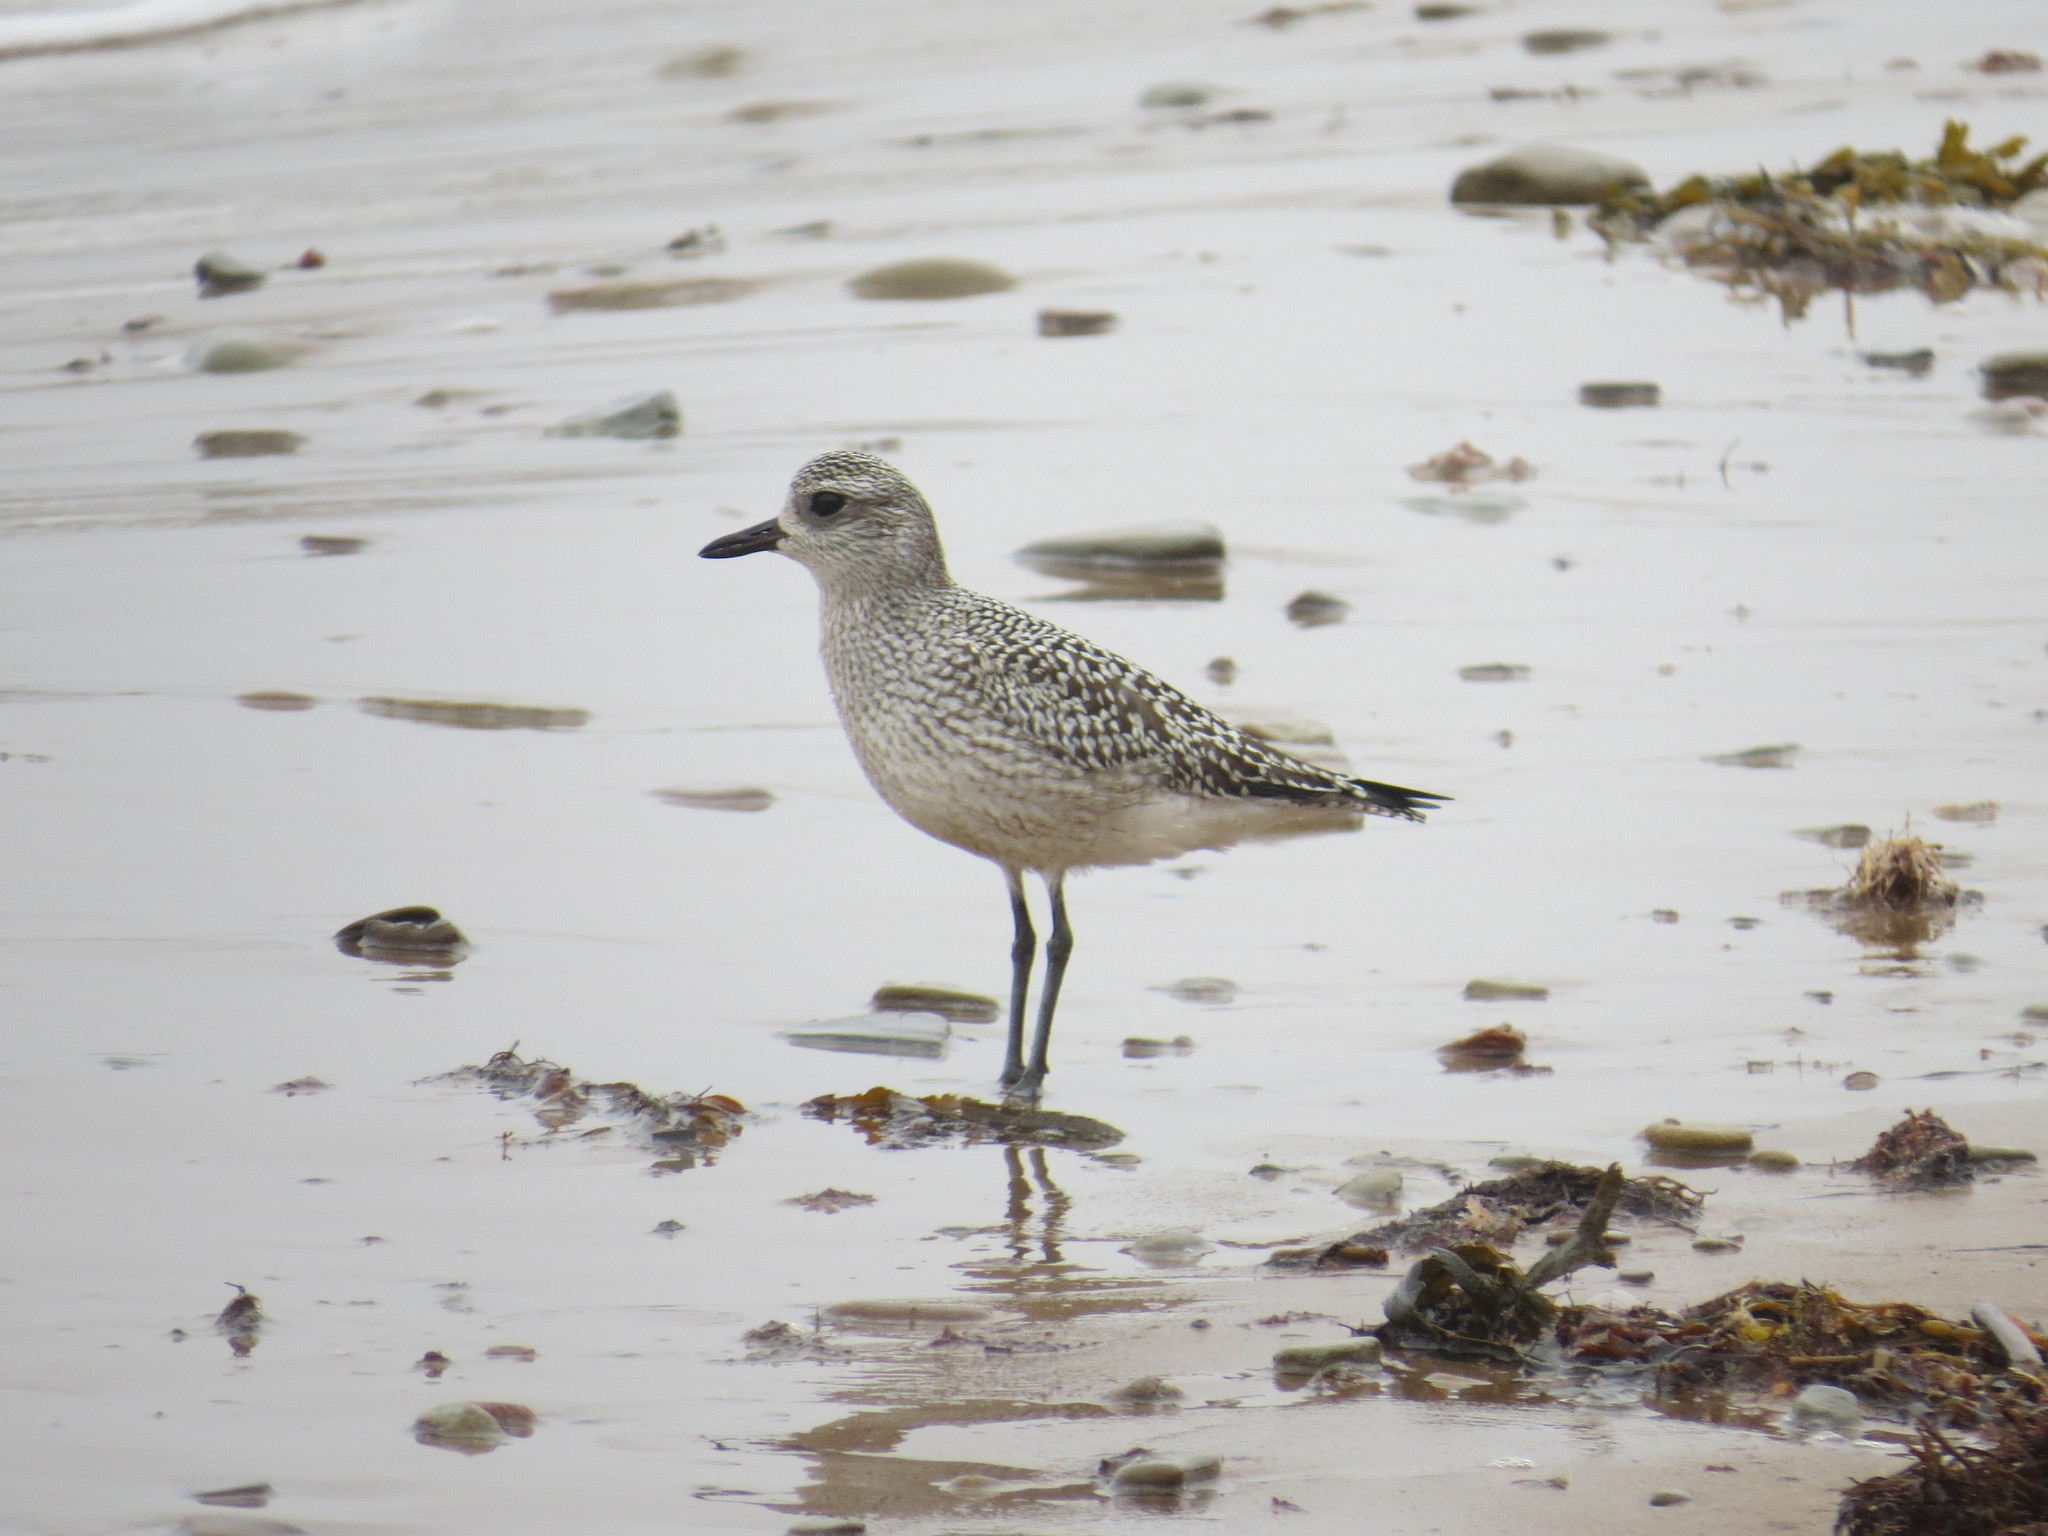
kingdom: Animalia
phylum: Chordata
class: Aves
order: Charadriiformes
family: Charadriidae
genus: Pluvialis
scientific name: Pluvialis squatarola
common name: Grey plover
